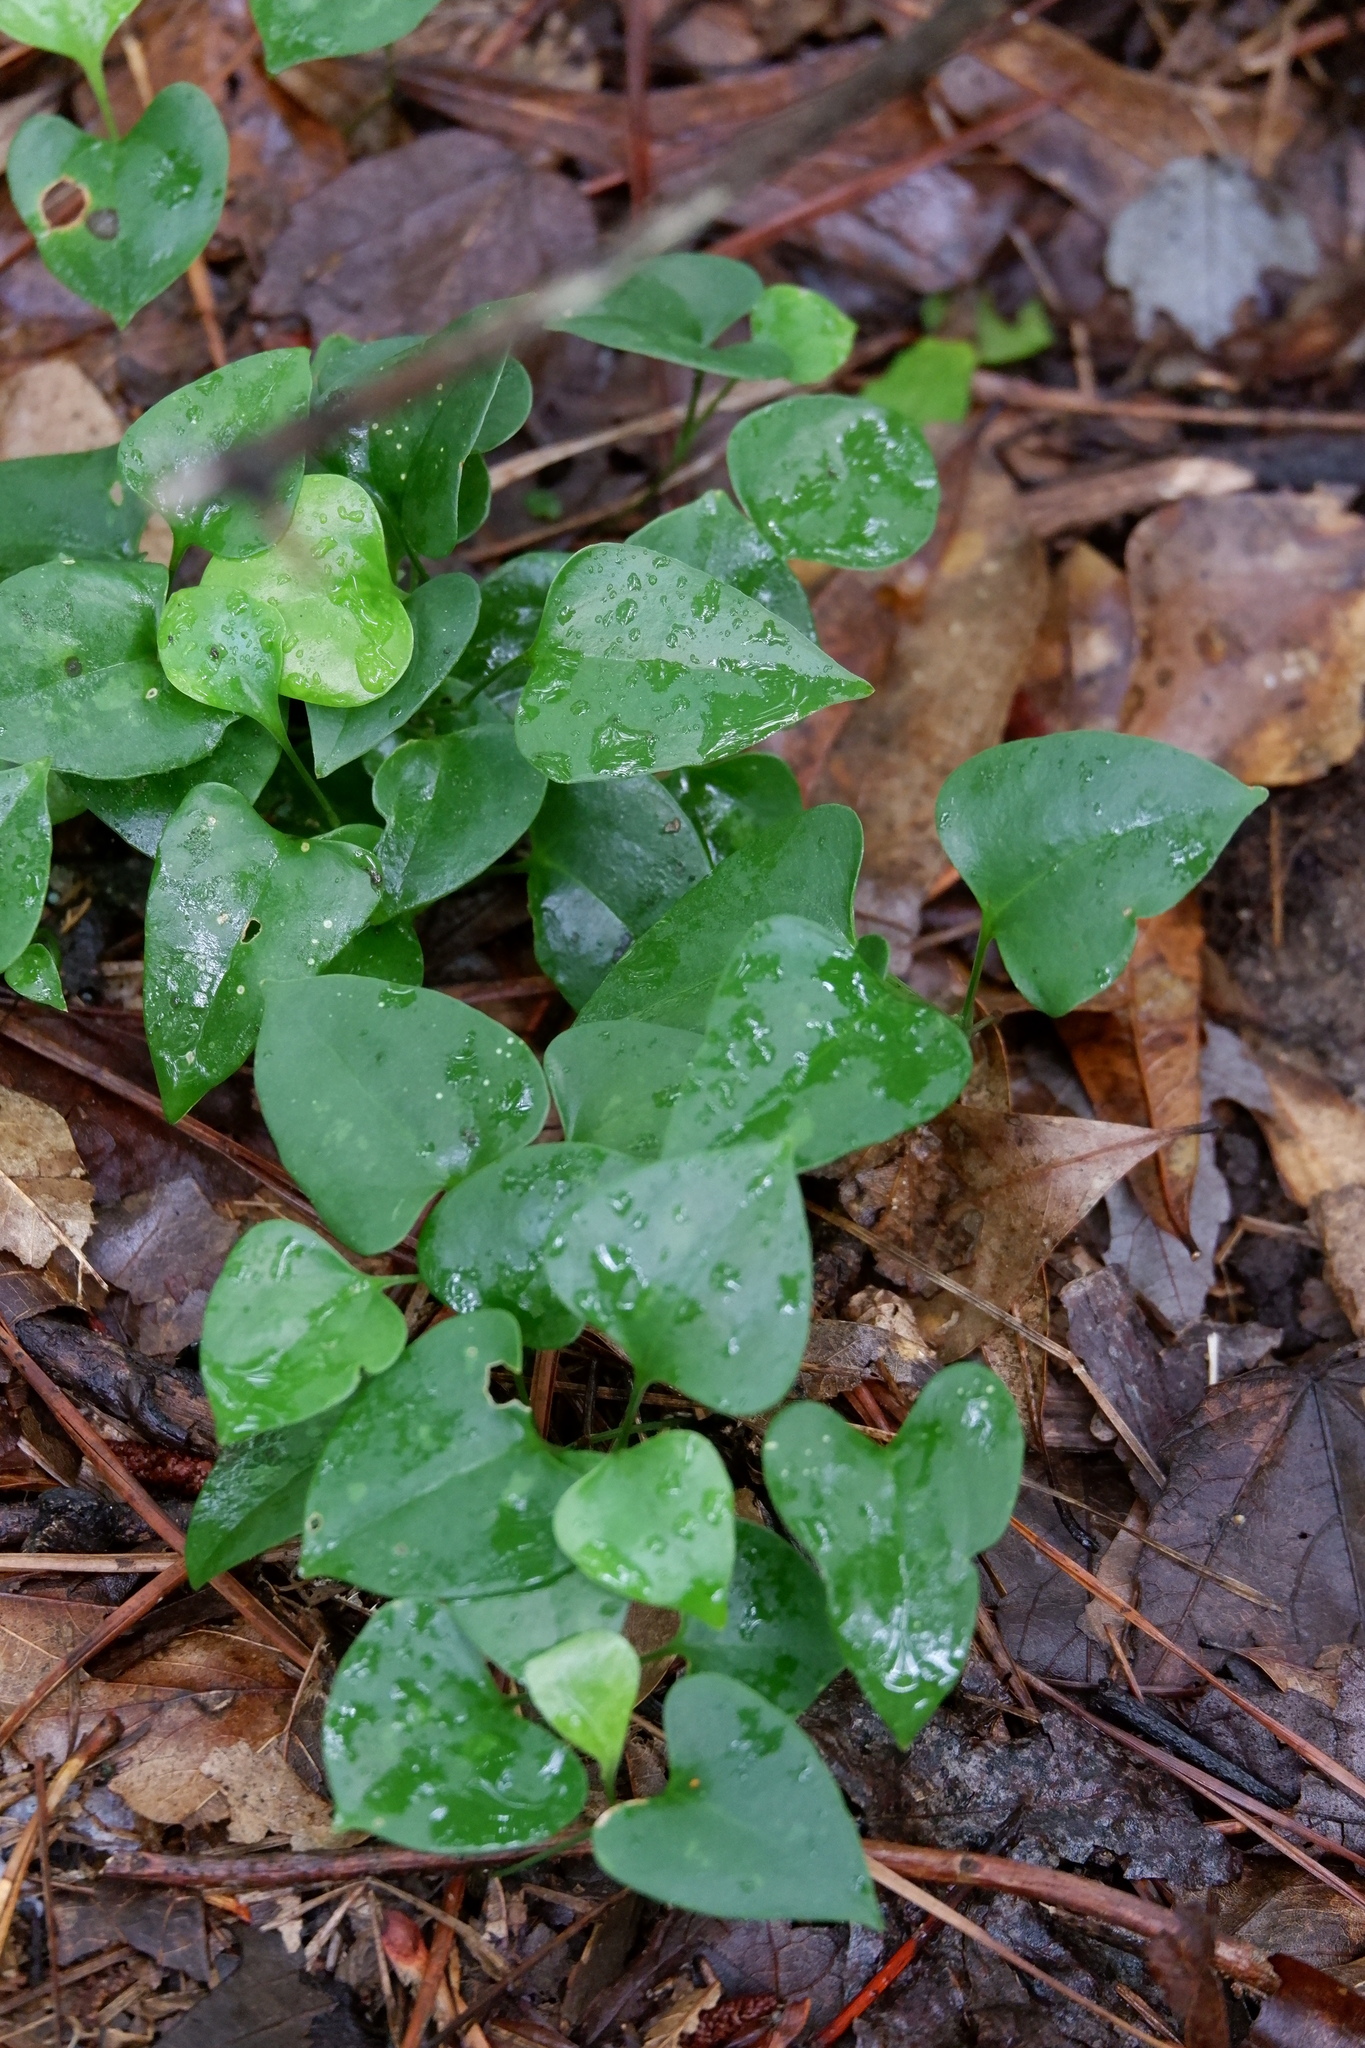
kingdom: Plantae
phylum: Tracheophyta
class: Liliopsida
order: Liliales
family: Smilacaceae
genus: Smilax
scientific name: Smilax bona-nox
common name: Catbrier
